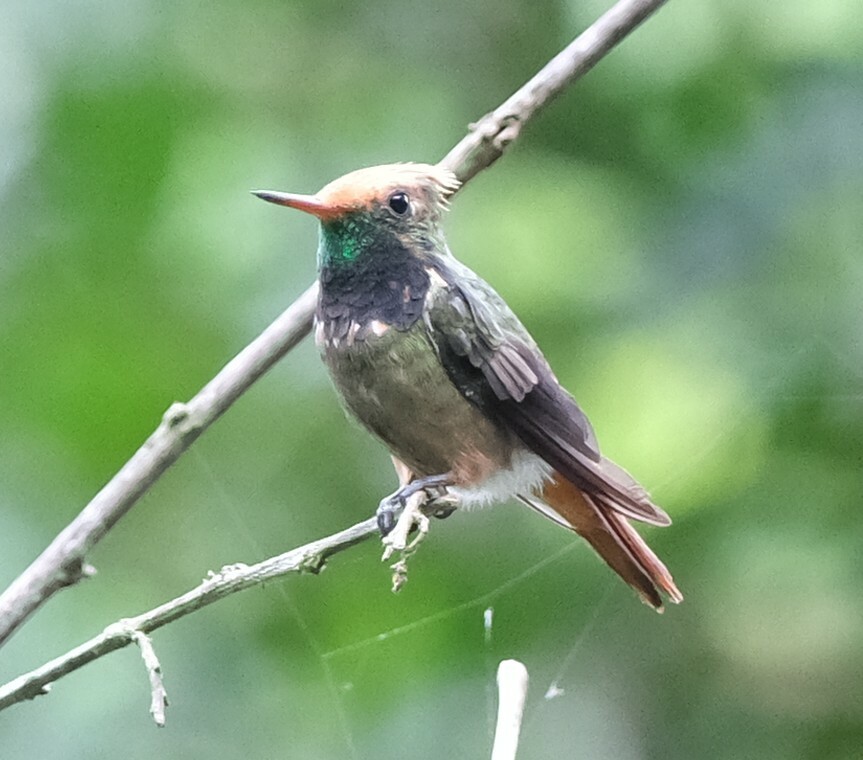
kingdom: Animalia
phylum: Chordata
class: Aves
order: Apodiformes
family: Trochilidae
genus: Lophornis
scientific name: Lophornis delattrei
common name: Rufous-crested coquette
